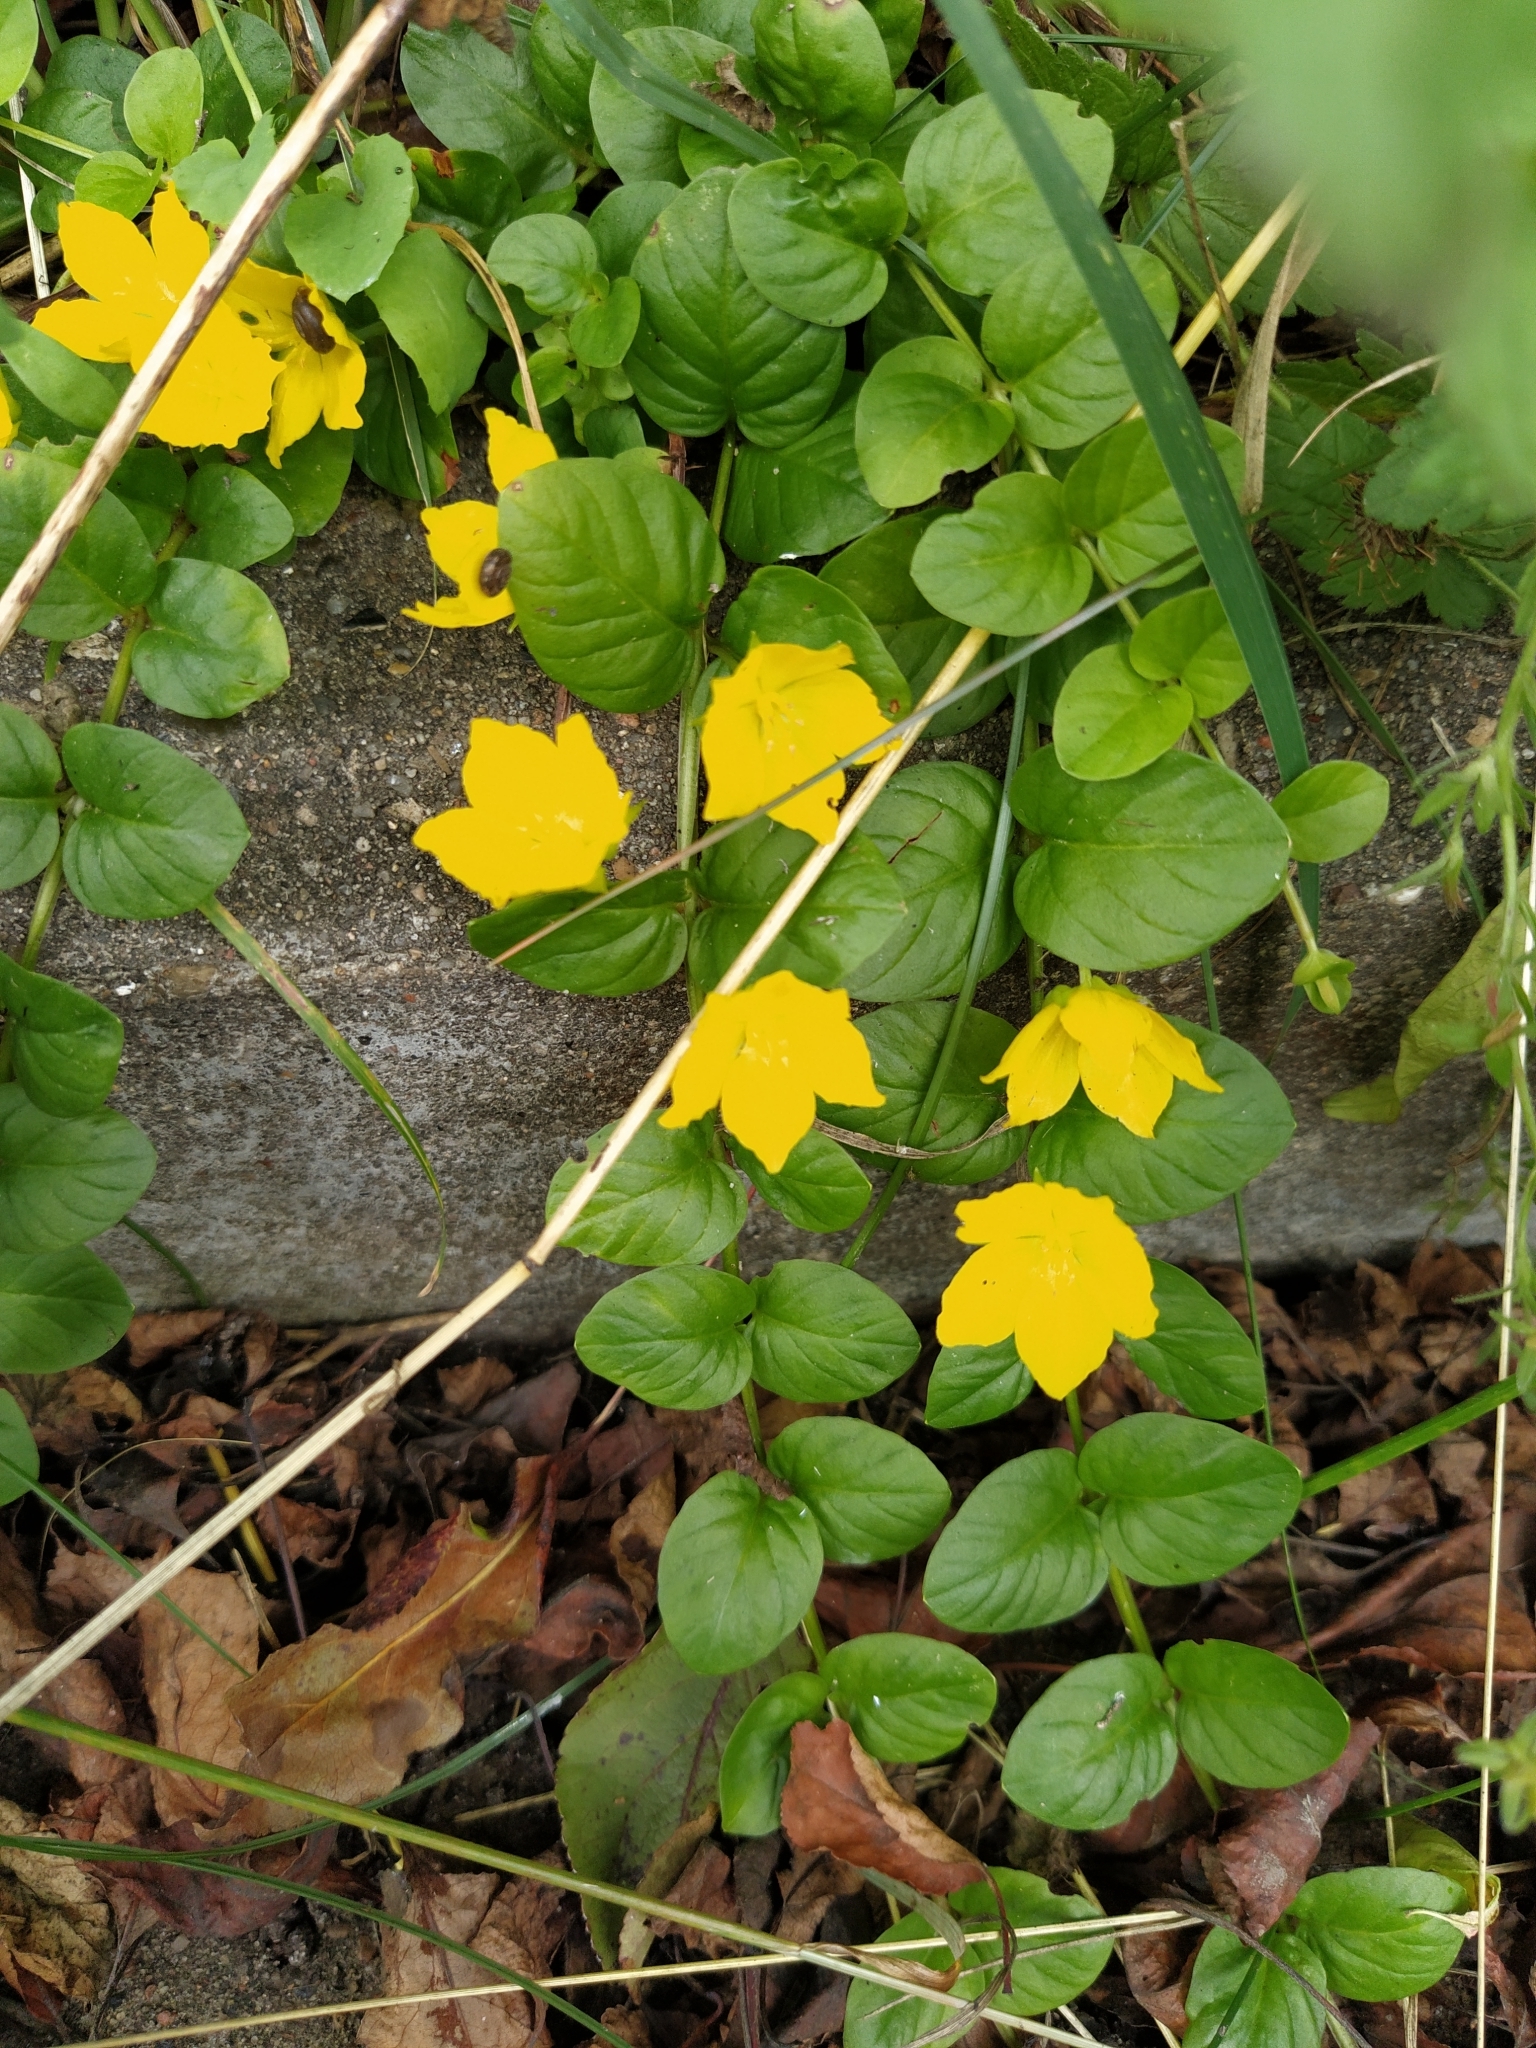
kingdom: Plantae
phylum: Tracheophyta
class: Magnoliopsida
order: Ericales
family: Primulaceae
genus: Lysimachia
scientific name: Lysimachia nummularia
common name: Moneywort
